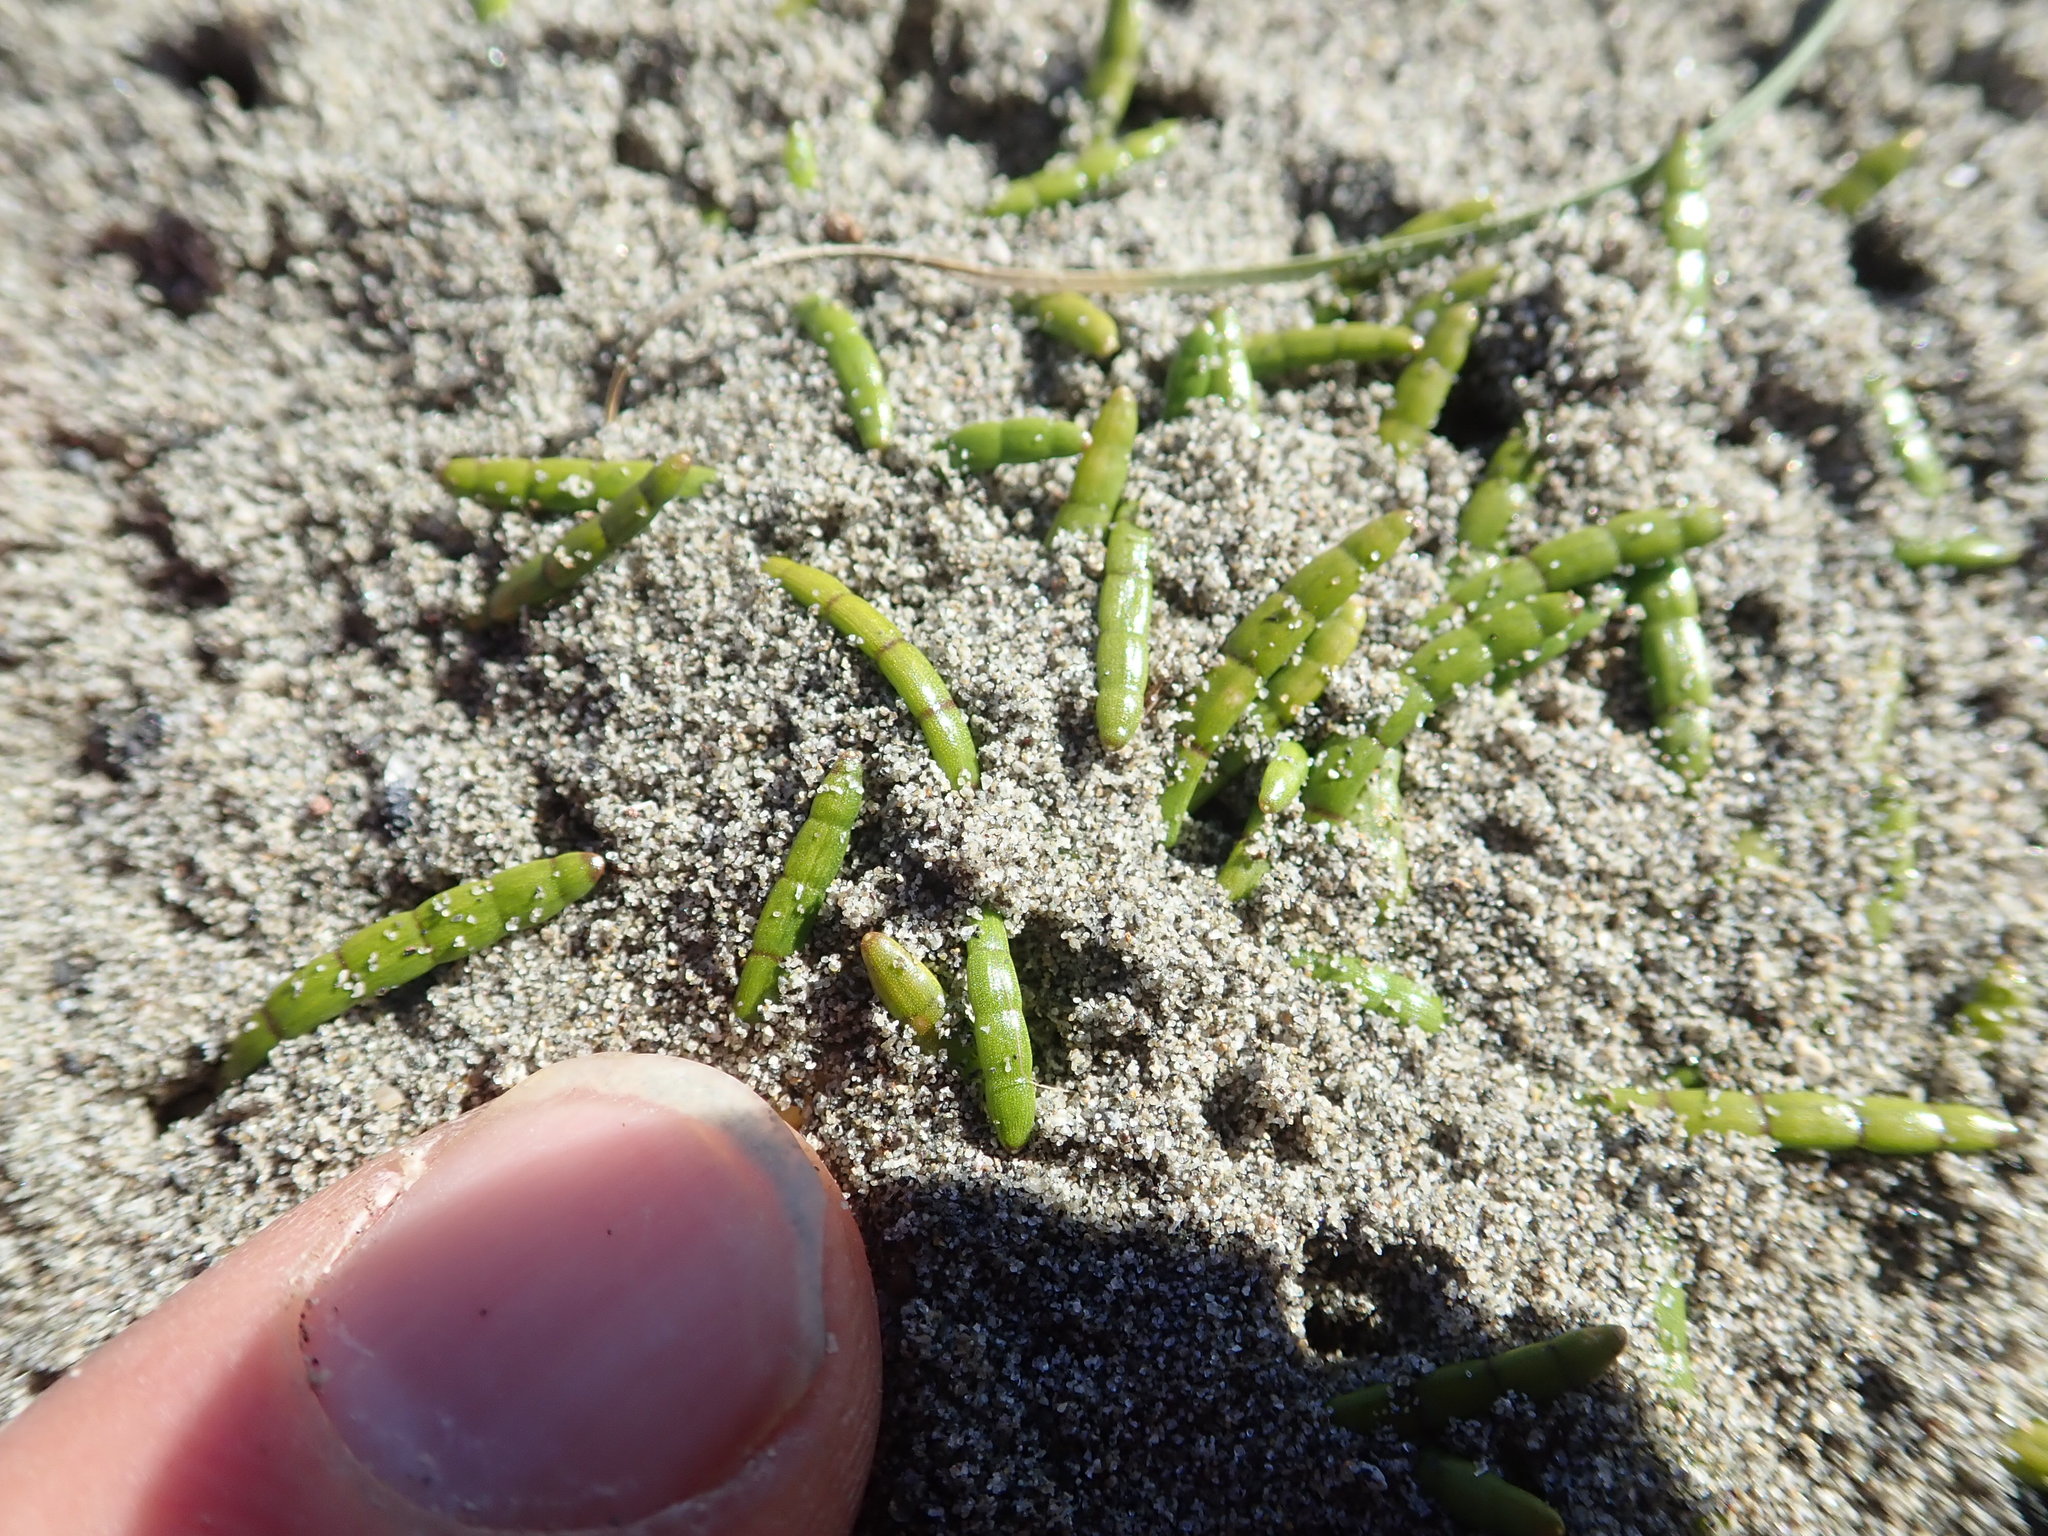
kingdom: Plantae
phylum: Tracheophyta
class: Magnoliopsida
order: Apiales
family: Apiaceae
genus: Lilaeopsis
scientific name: Lilaeopsis novae-zelandiae
